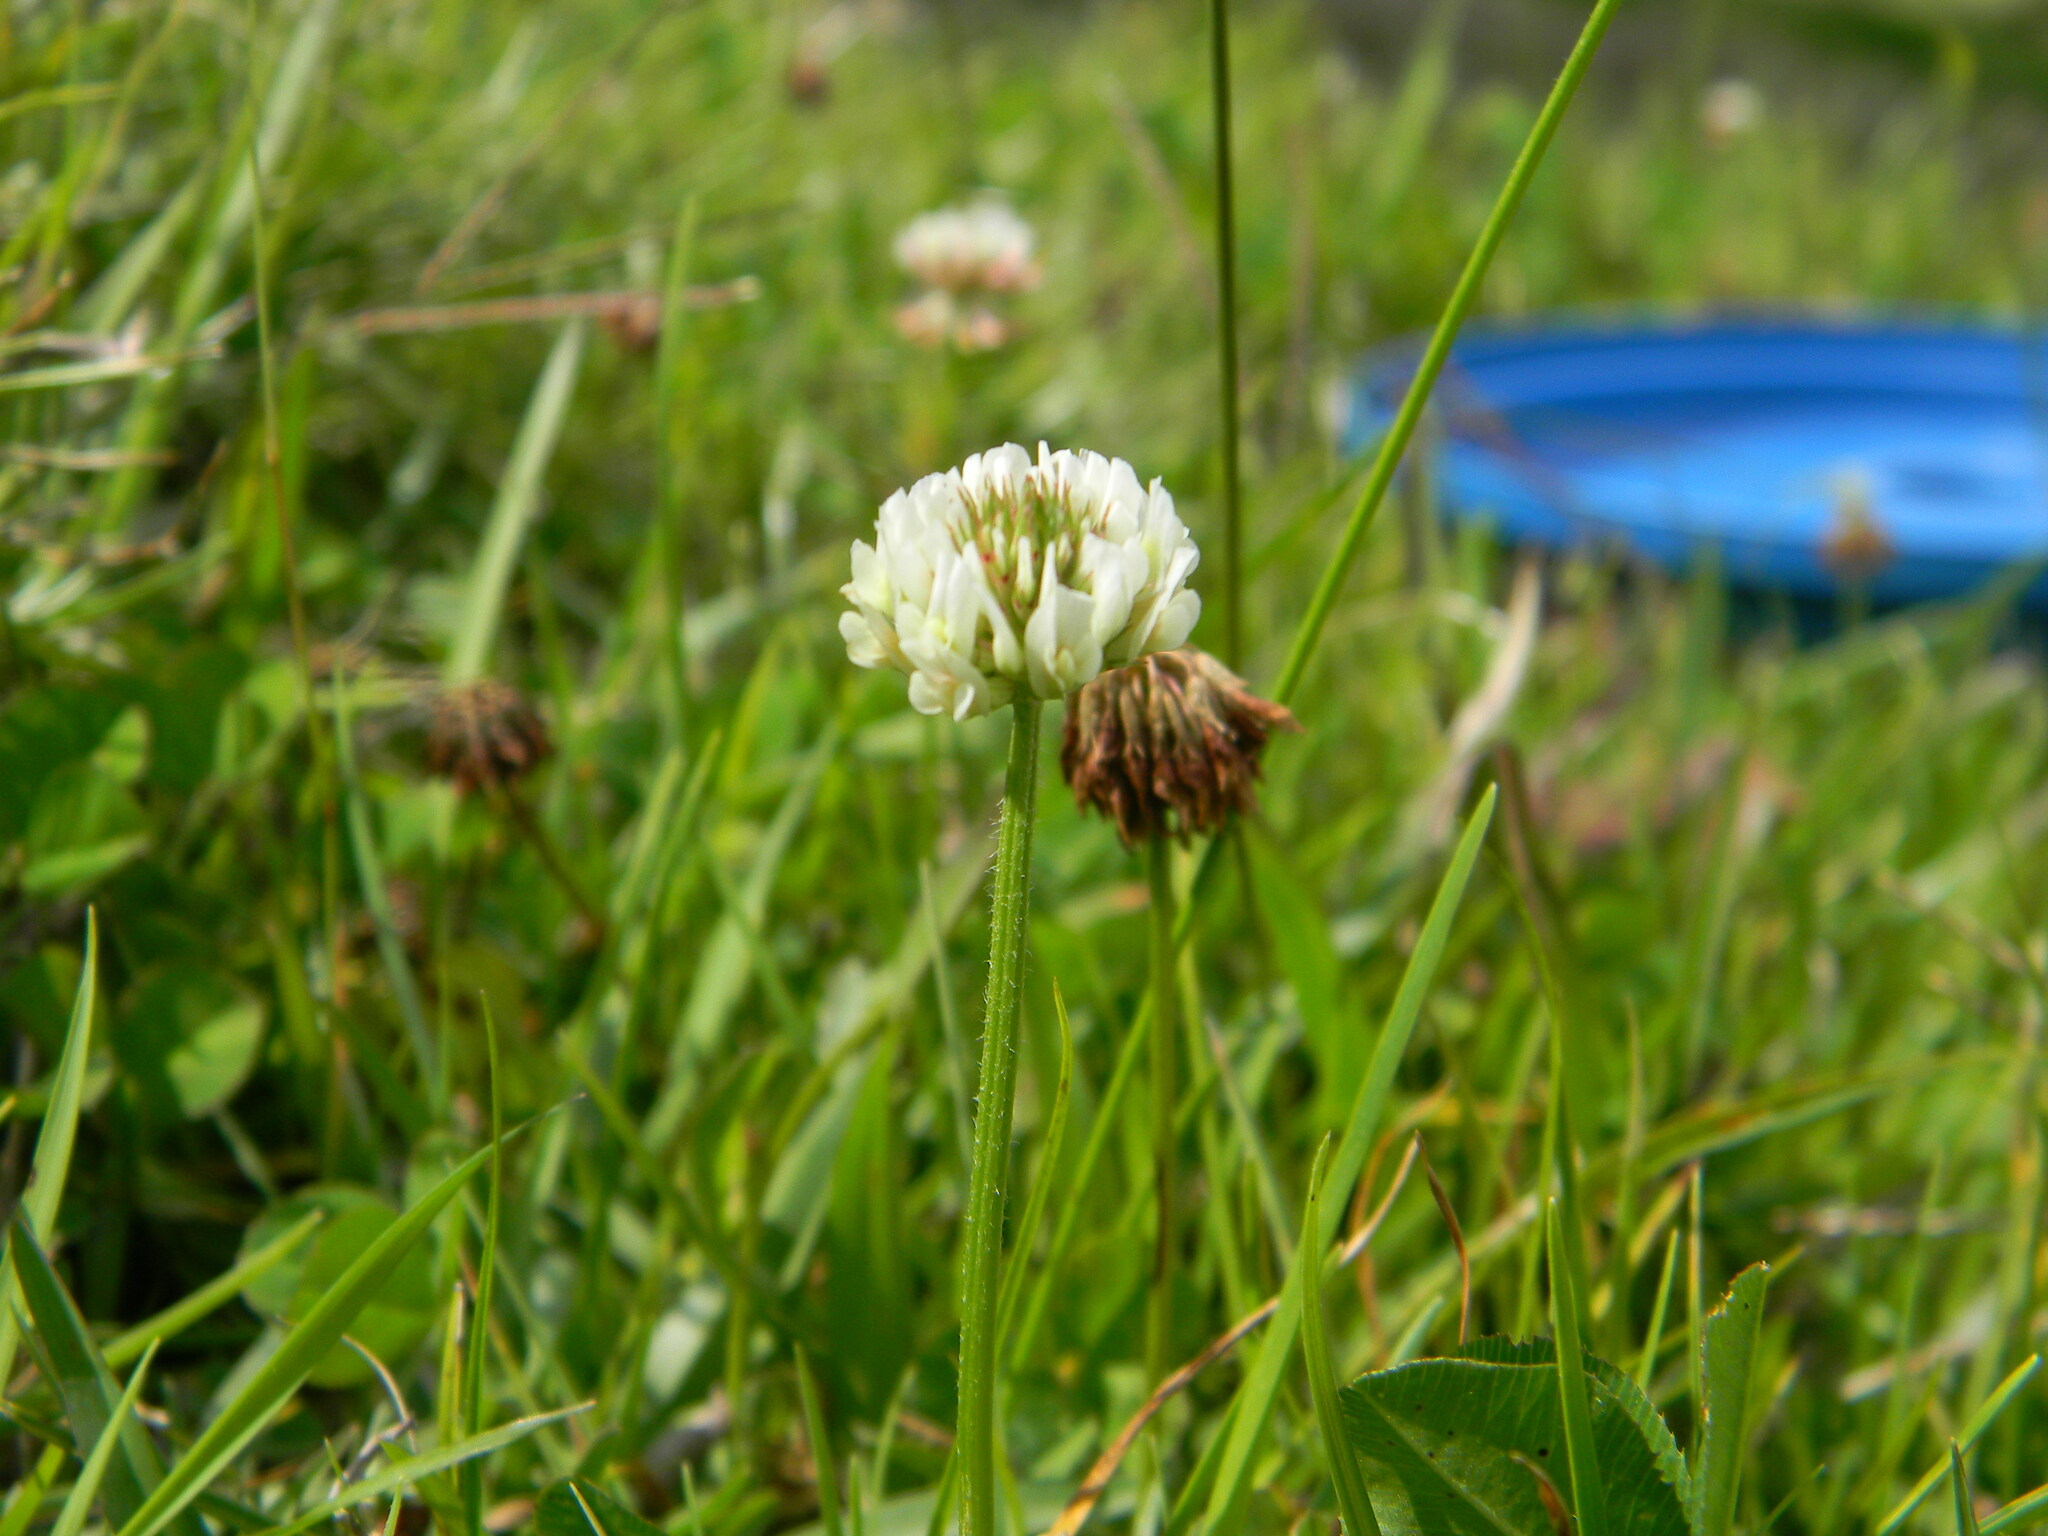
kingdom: Plantae
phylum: Tracheophyta
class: Magnoliopsida
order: Fabales
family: Fabaceae
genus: Trifolium
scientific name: Trifolium repens
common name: White clover
